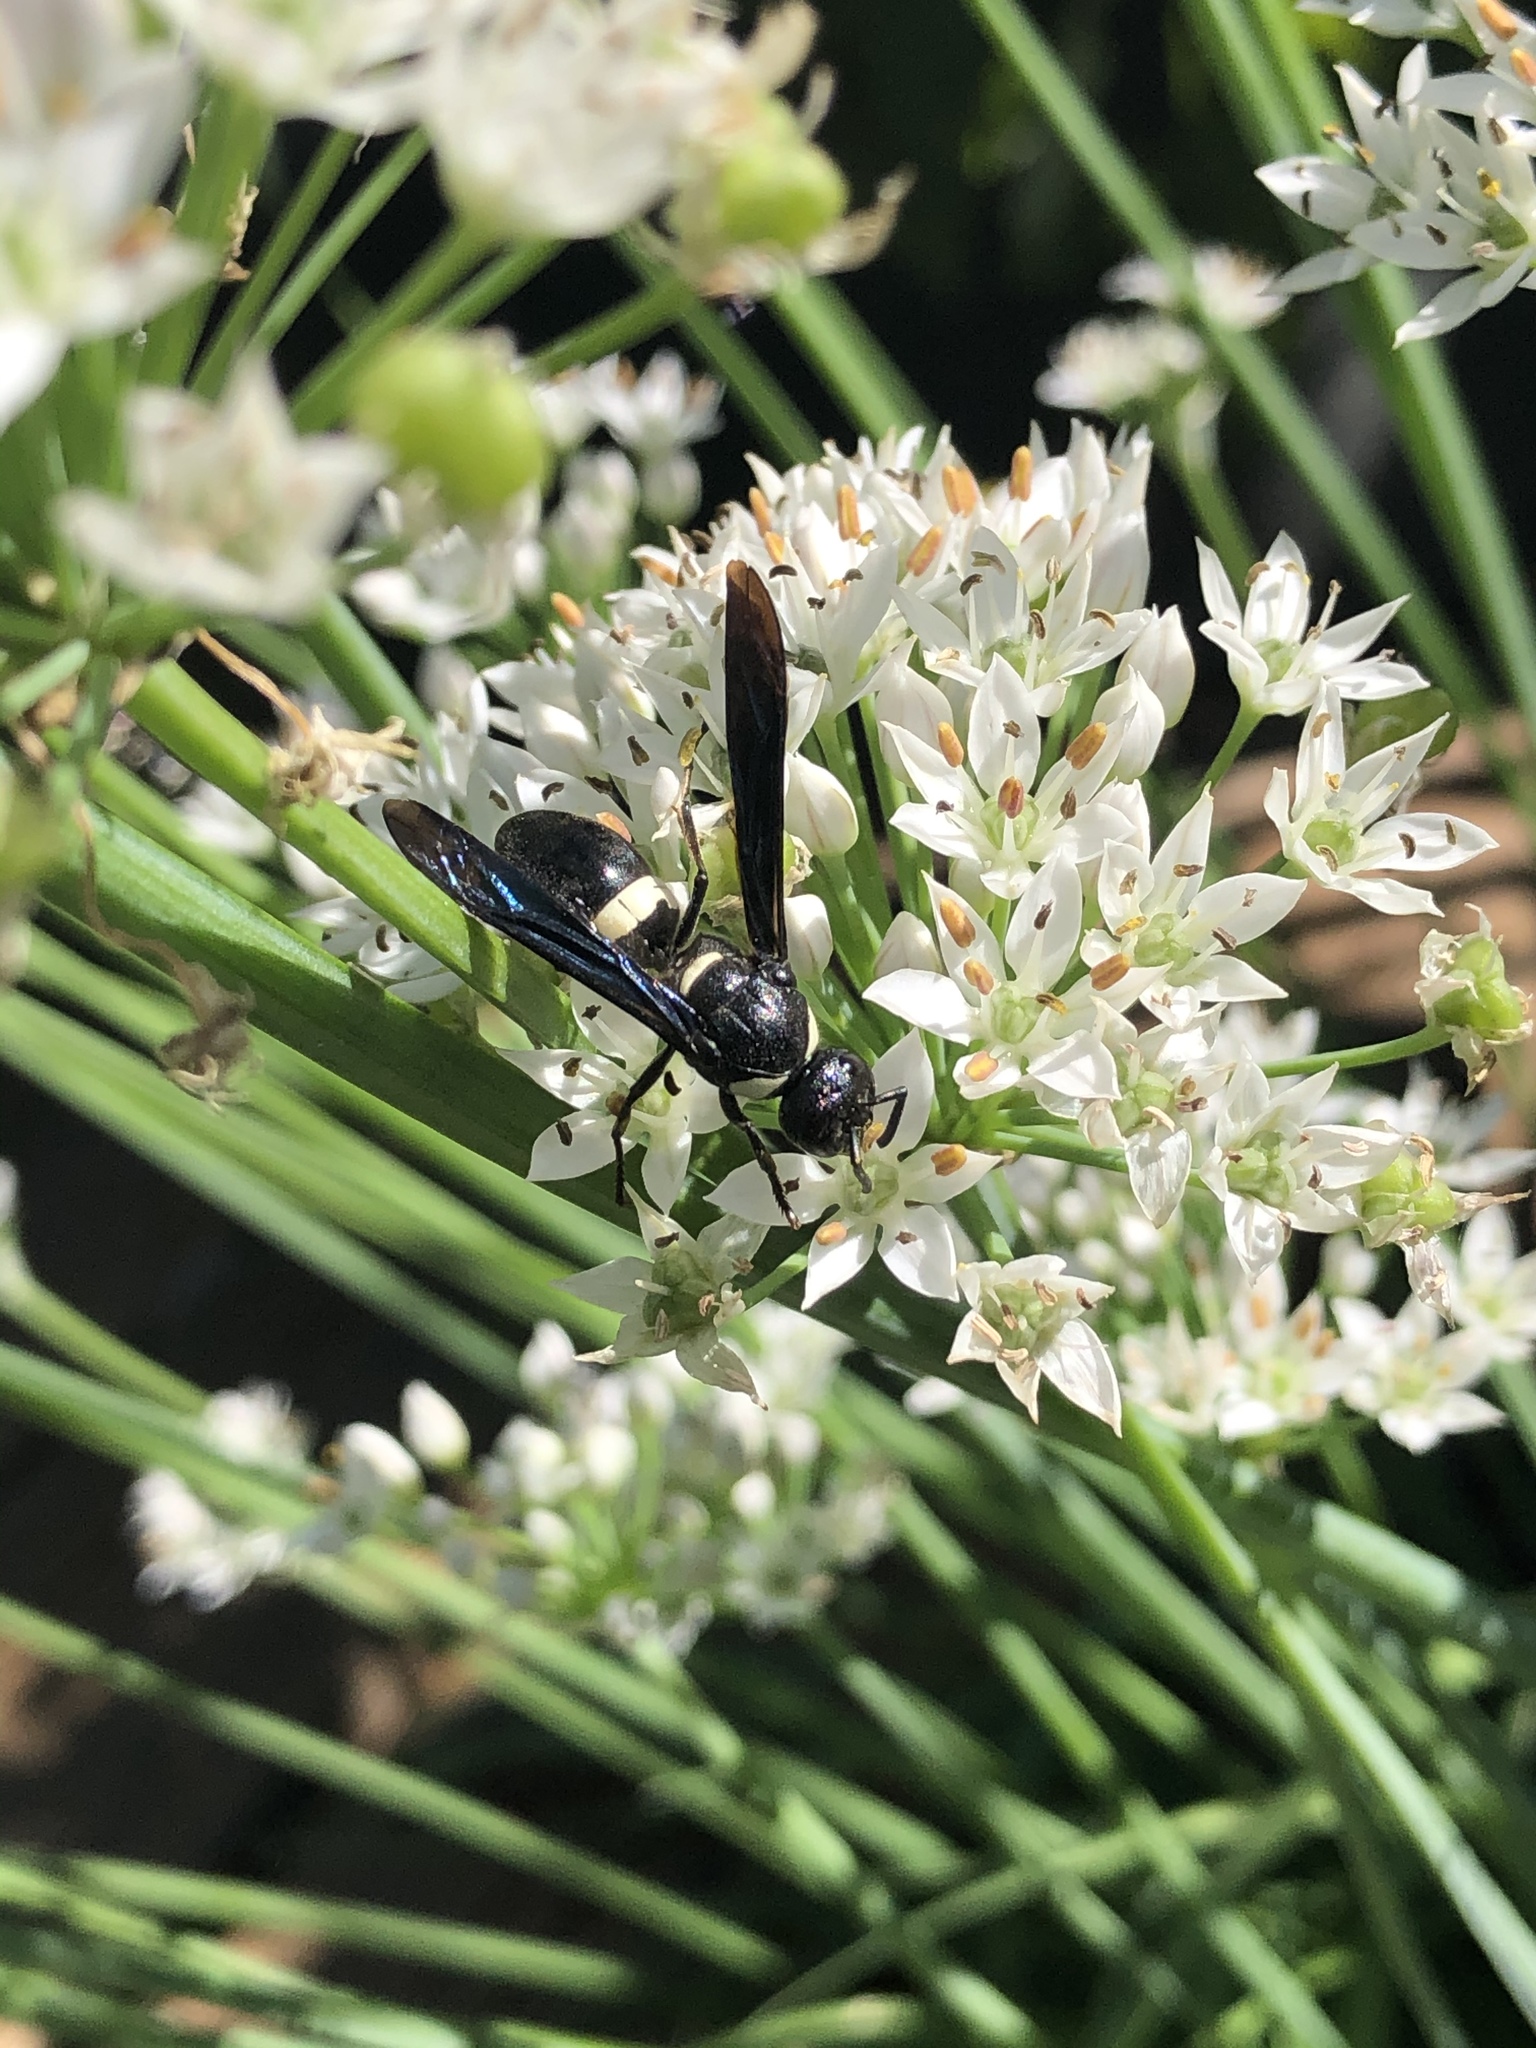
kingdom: Animalia
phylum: Arthropoda
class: Insecta
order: Hymenoptera
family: Eumenidae
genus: Monobia
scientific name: Monobia quadridens
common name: Four-toothed mason wasp
